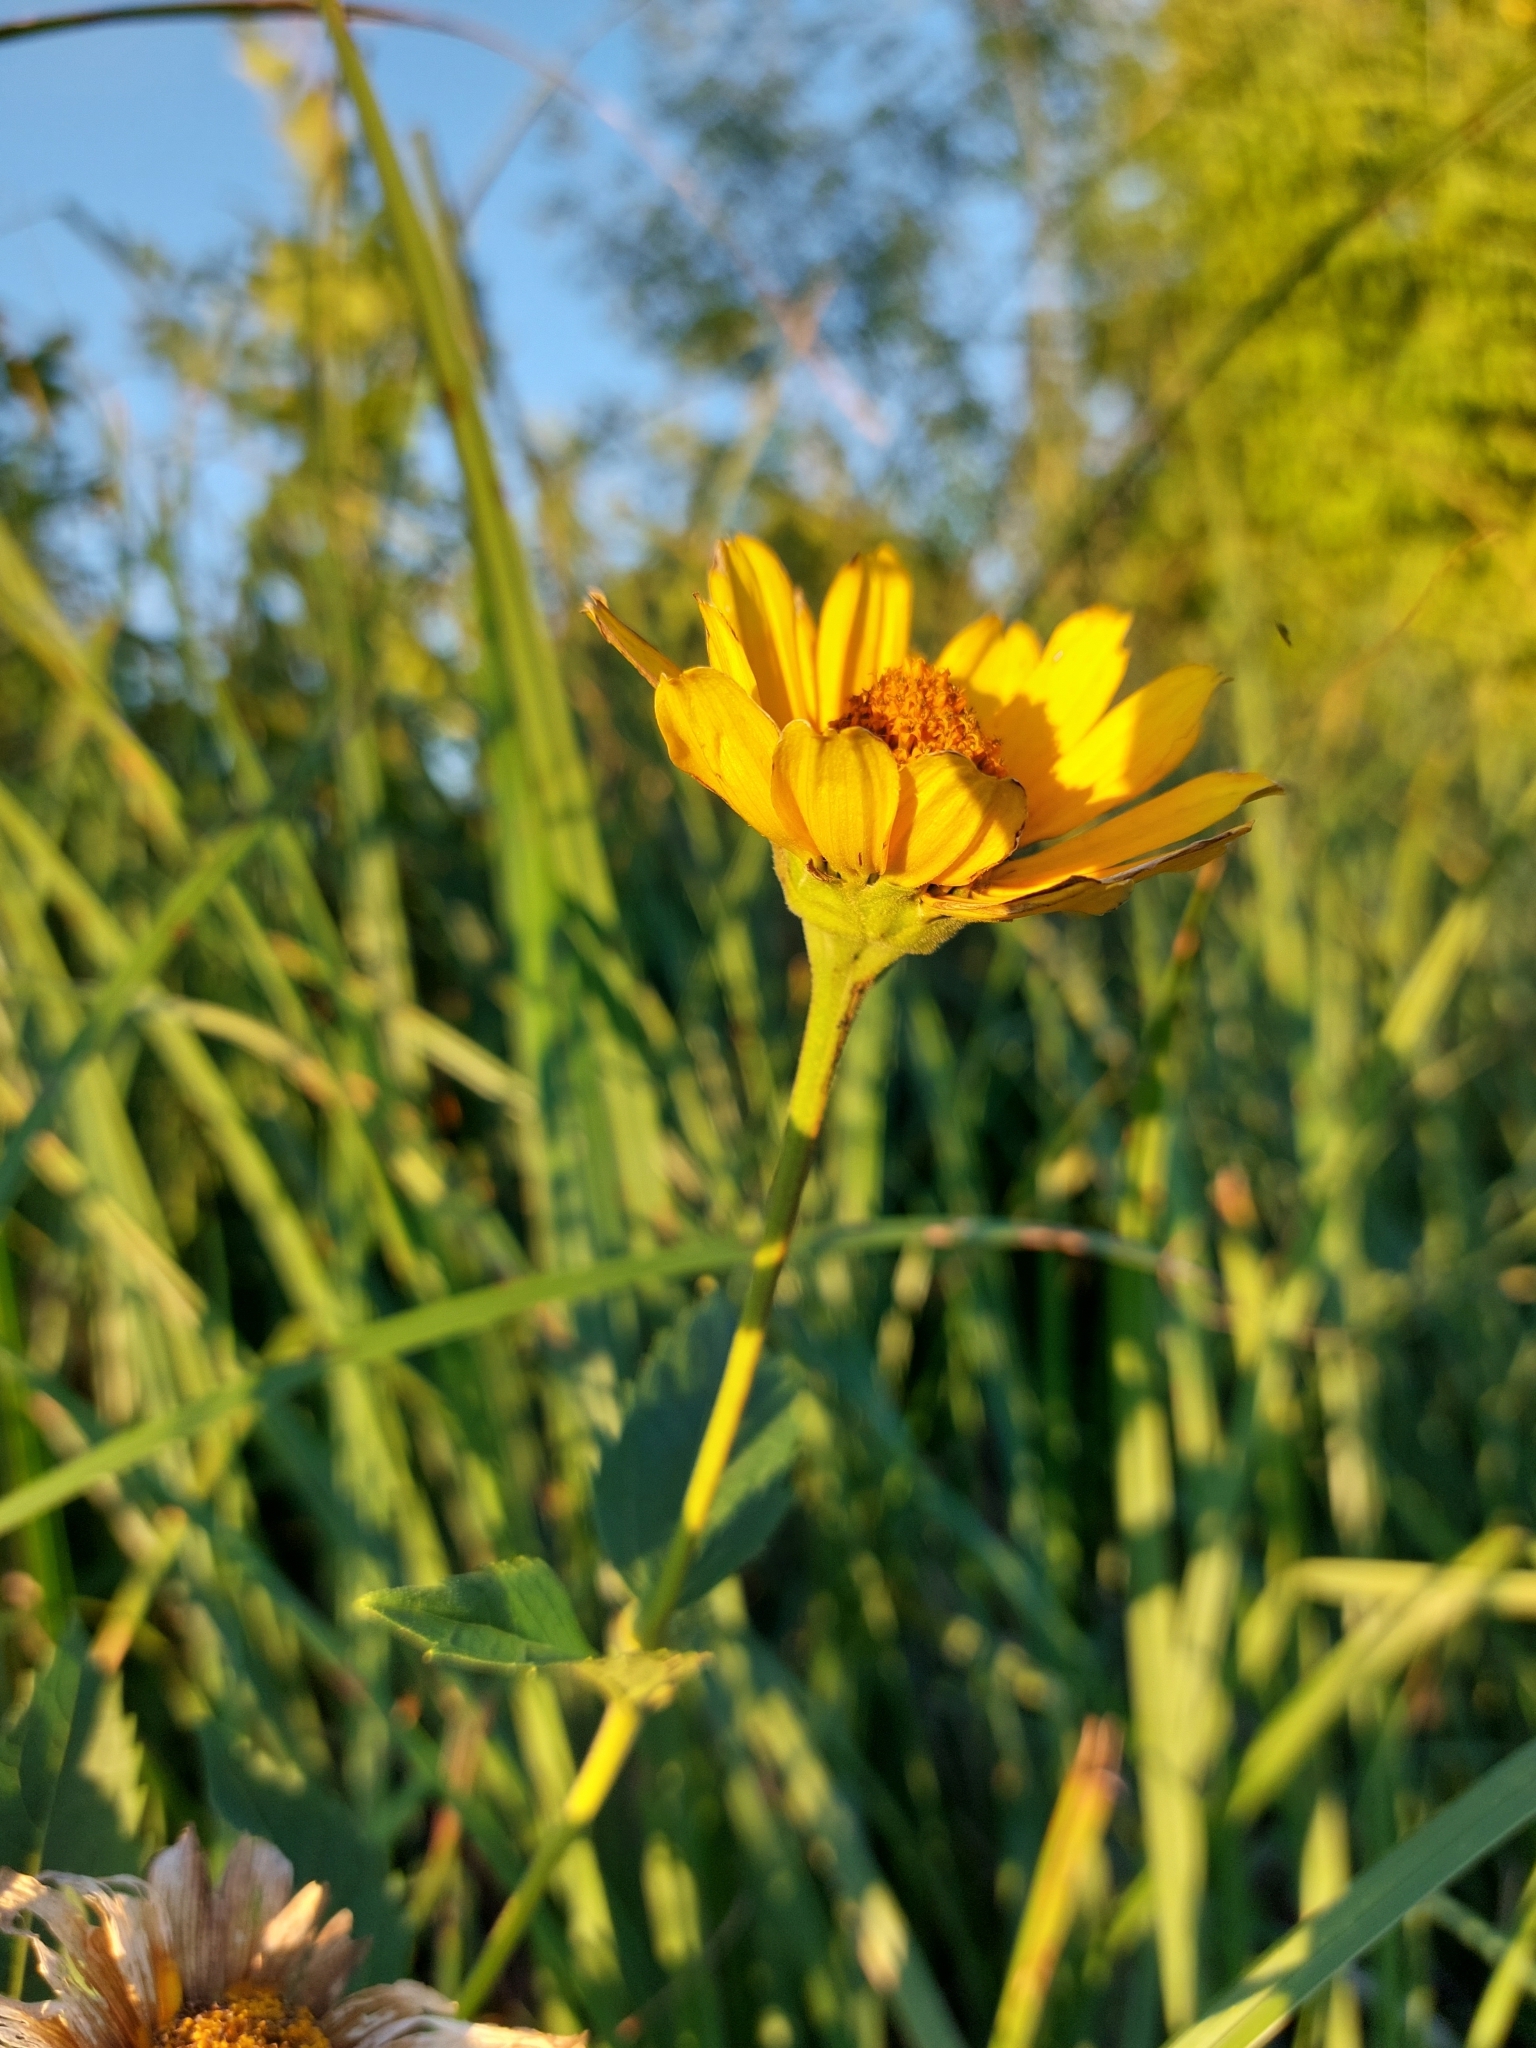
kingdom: Plantae
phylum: Tracheophyta
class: Magnoliopsida
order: Asterales
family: Asteraceae
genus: Heliopsis
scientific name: Heliopsis helianthoides
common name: False sunflower
